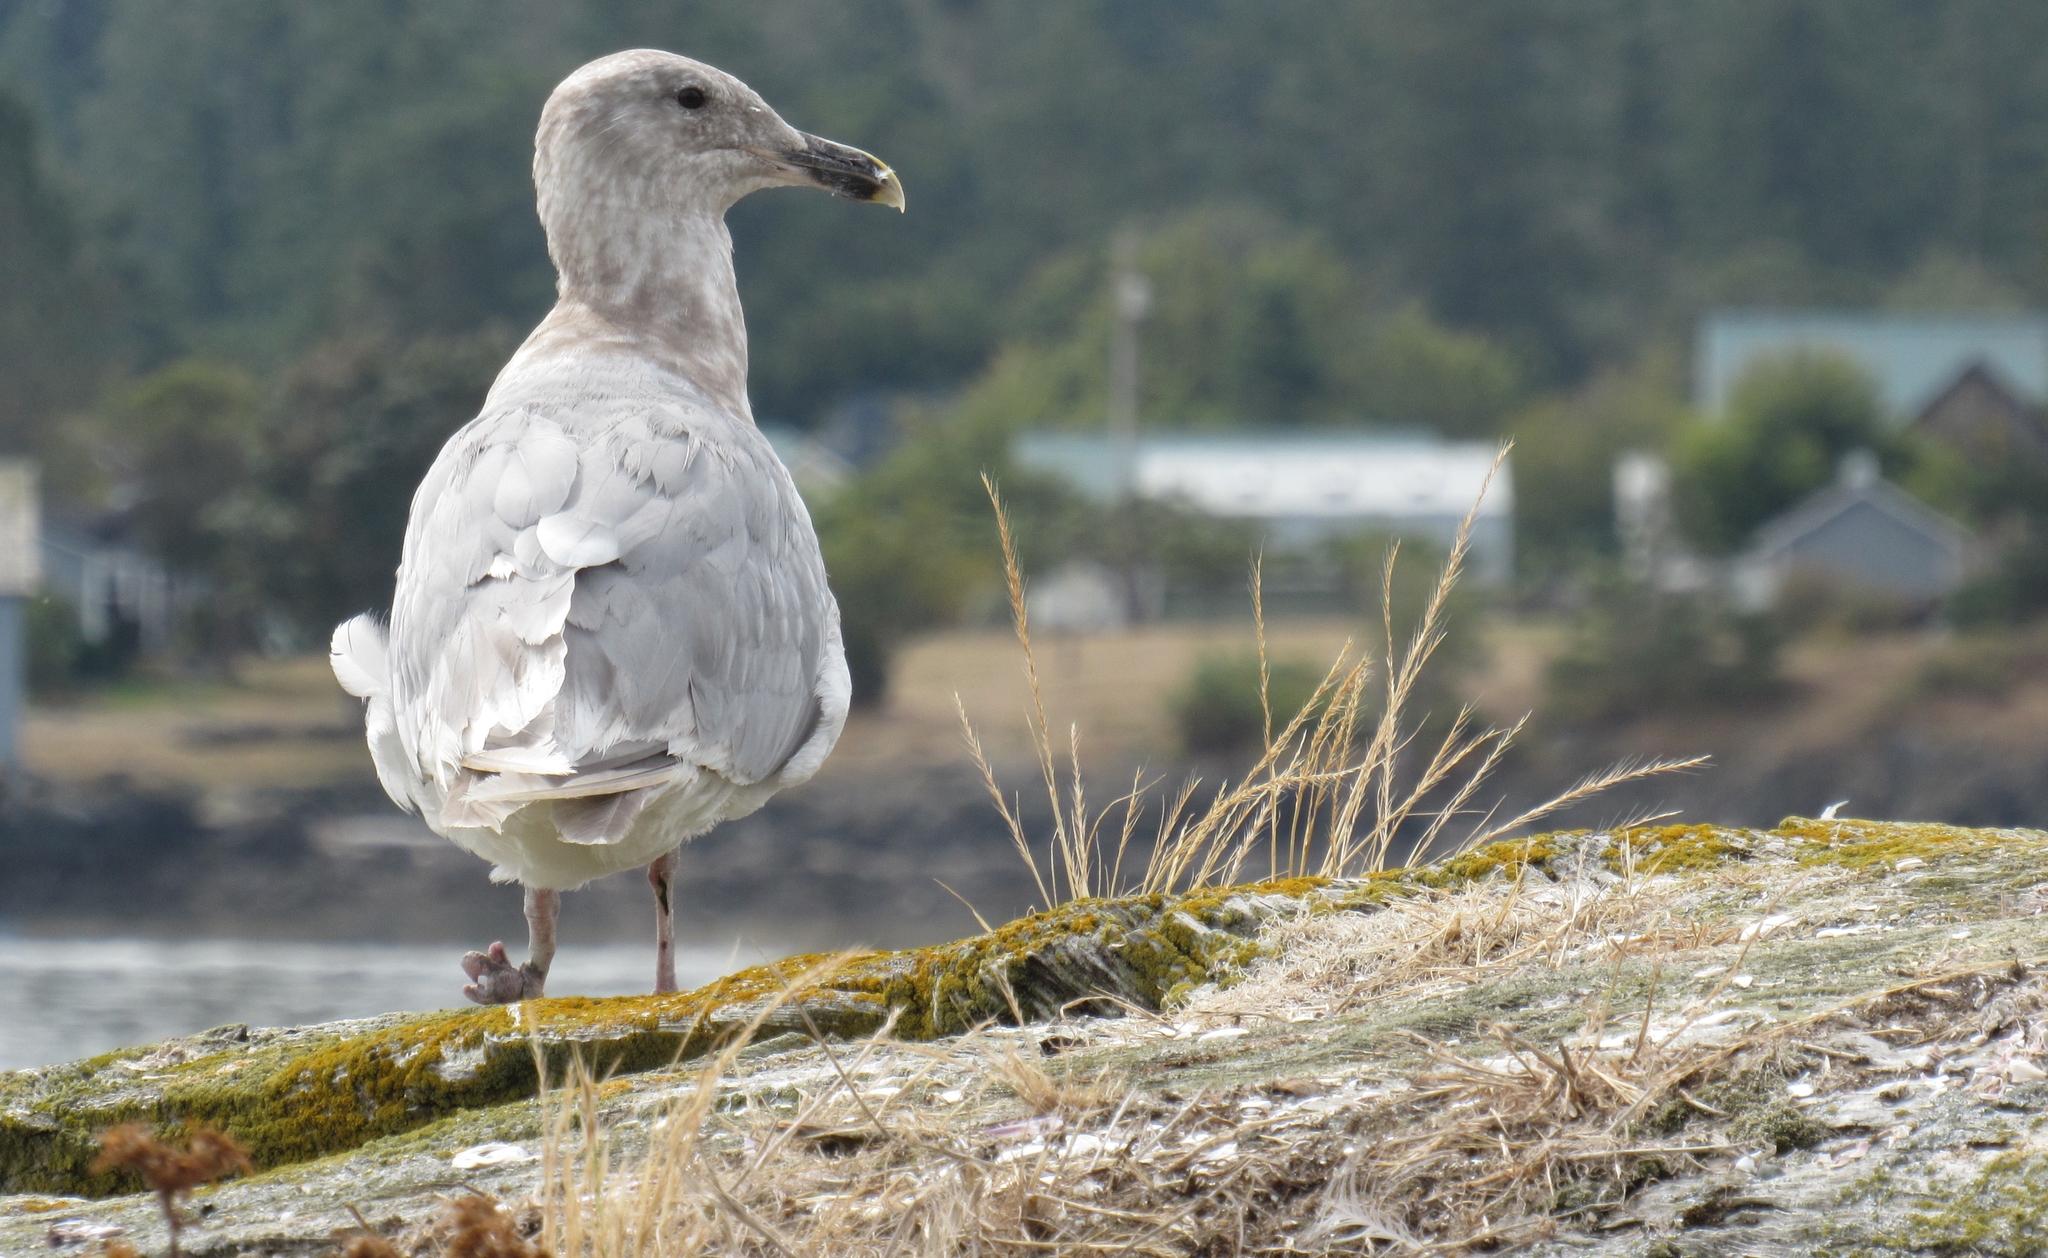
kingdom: Animalia
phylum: Chordata
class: Aves
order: Charadriiformes
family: Laridae
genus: Larus
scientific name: Larus glaucescens
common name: Glaucous-winged gull
